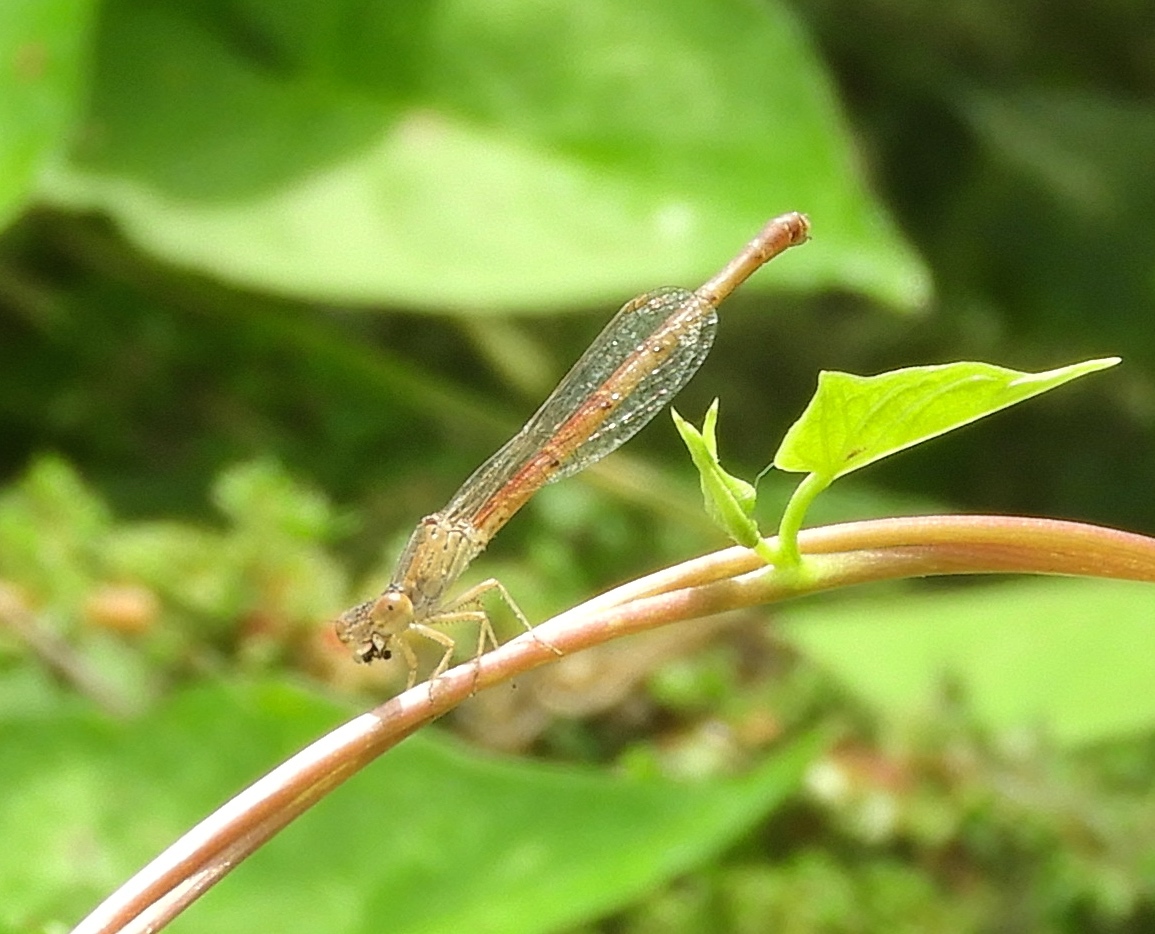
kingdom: Animalia
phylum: Arthropoda
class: Insecta
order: Odonata
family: Coenagrionidae
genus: Telebasis
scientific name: Telebasis salva
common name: Desert firetail
